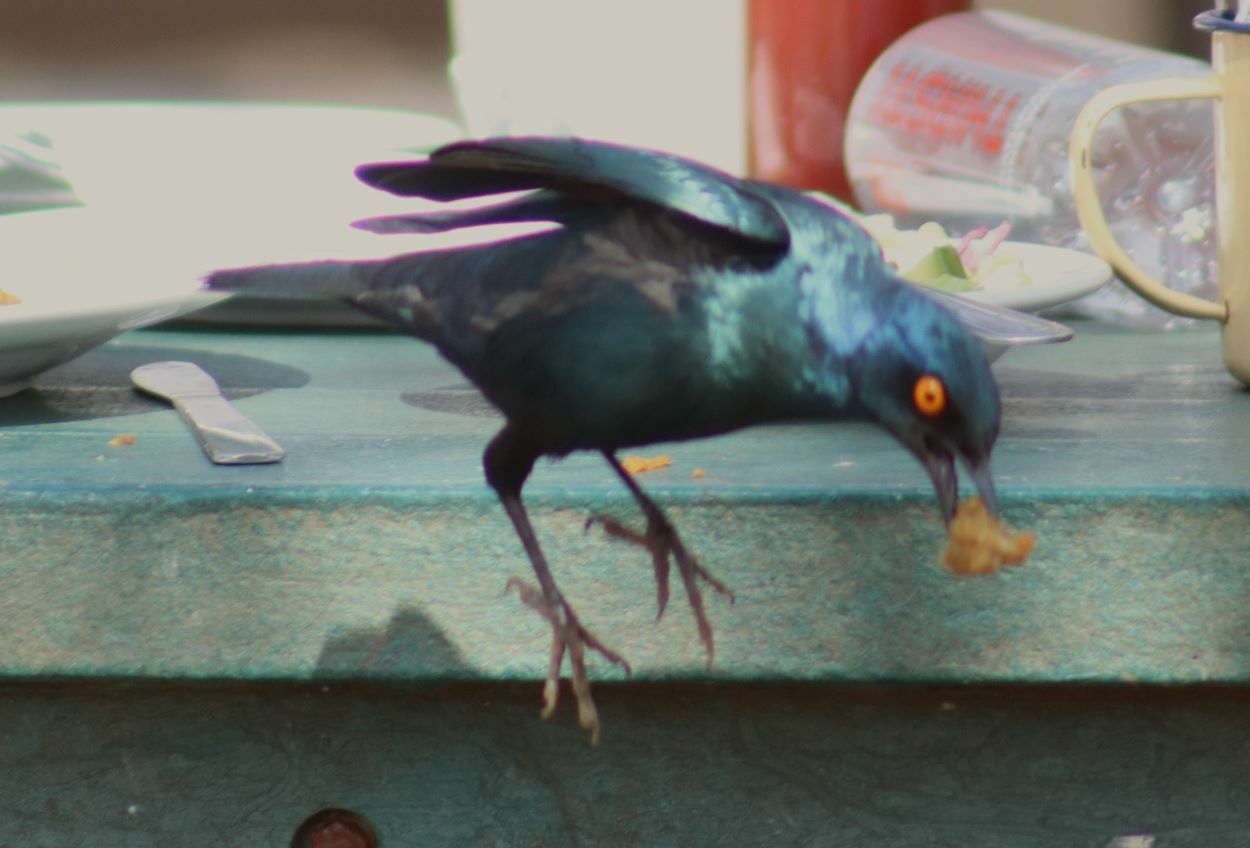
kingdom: Animalia
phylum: Chordata
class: Aves
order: Passeriformes
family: Sturnidae
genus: Lamprotornis
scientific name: Lamprotornis nitens
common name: Cape starling
